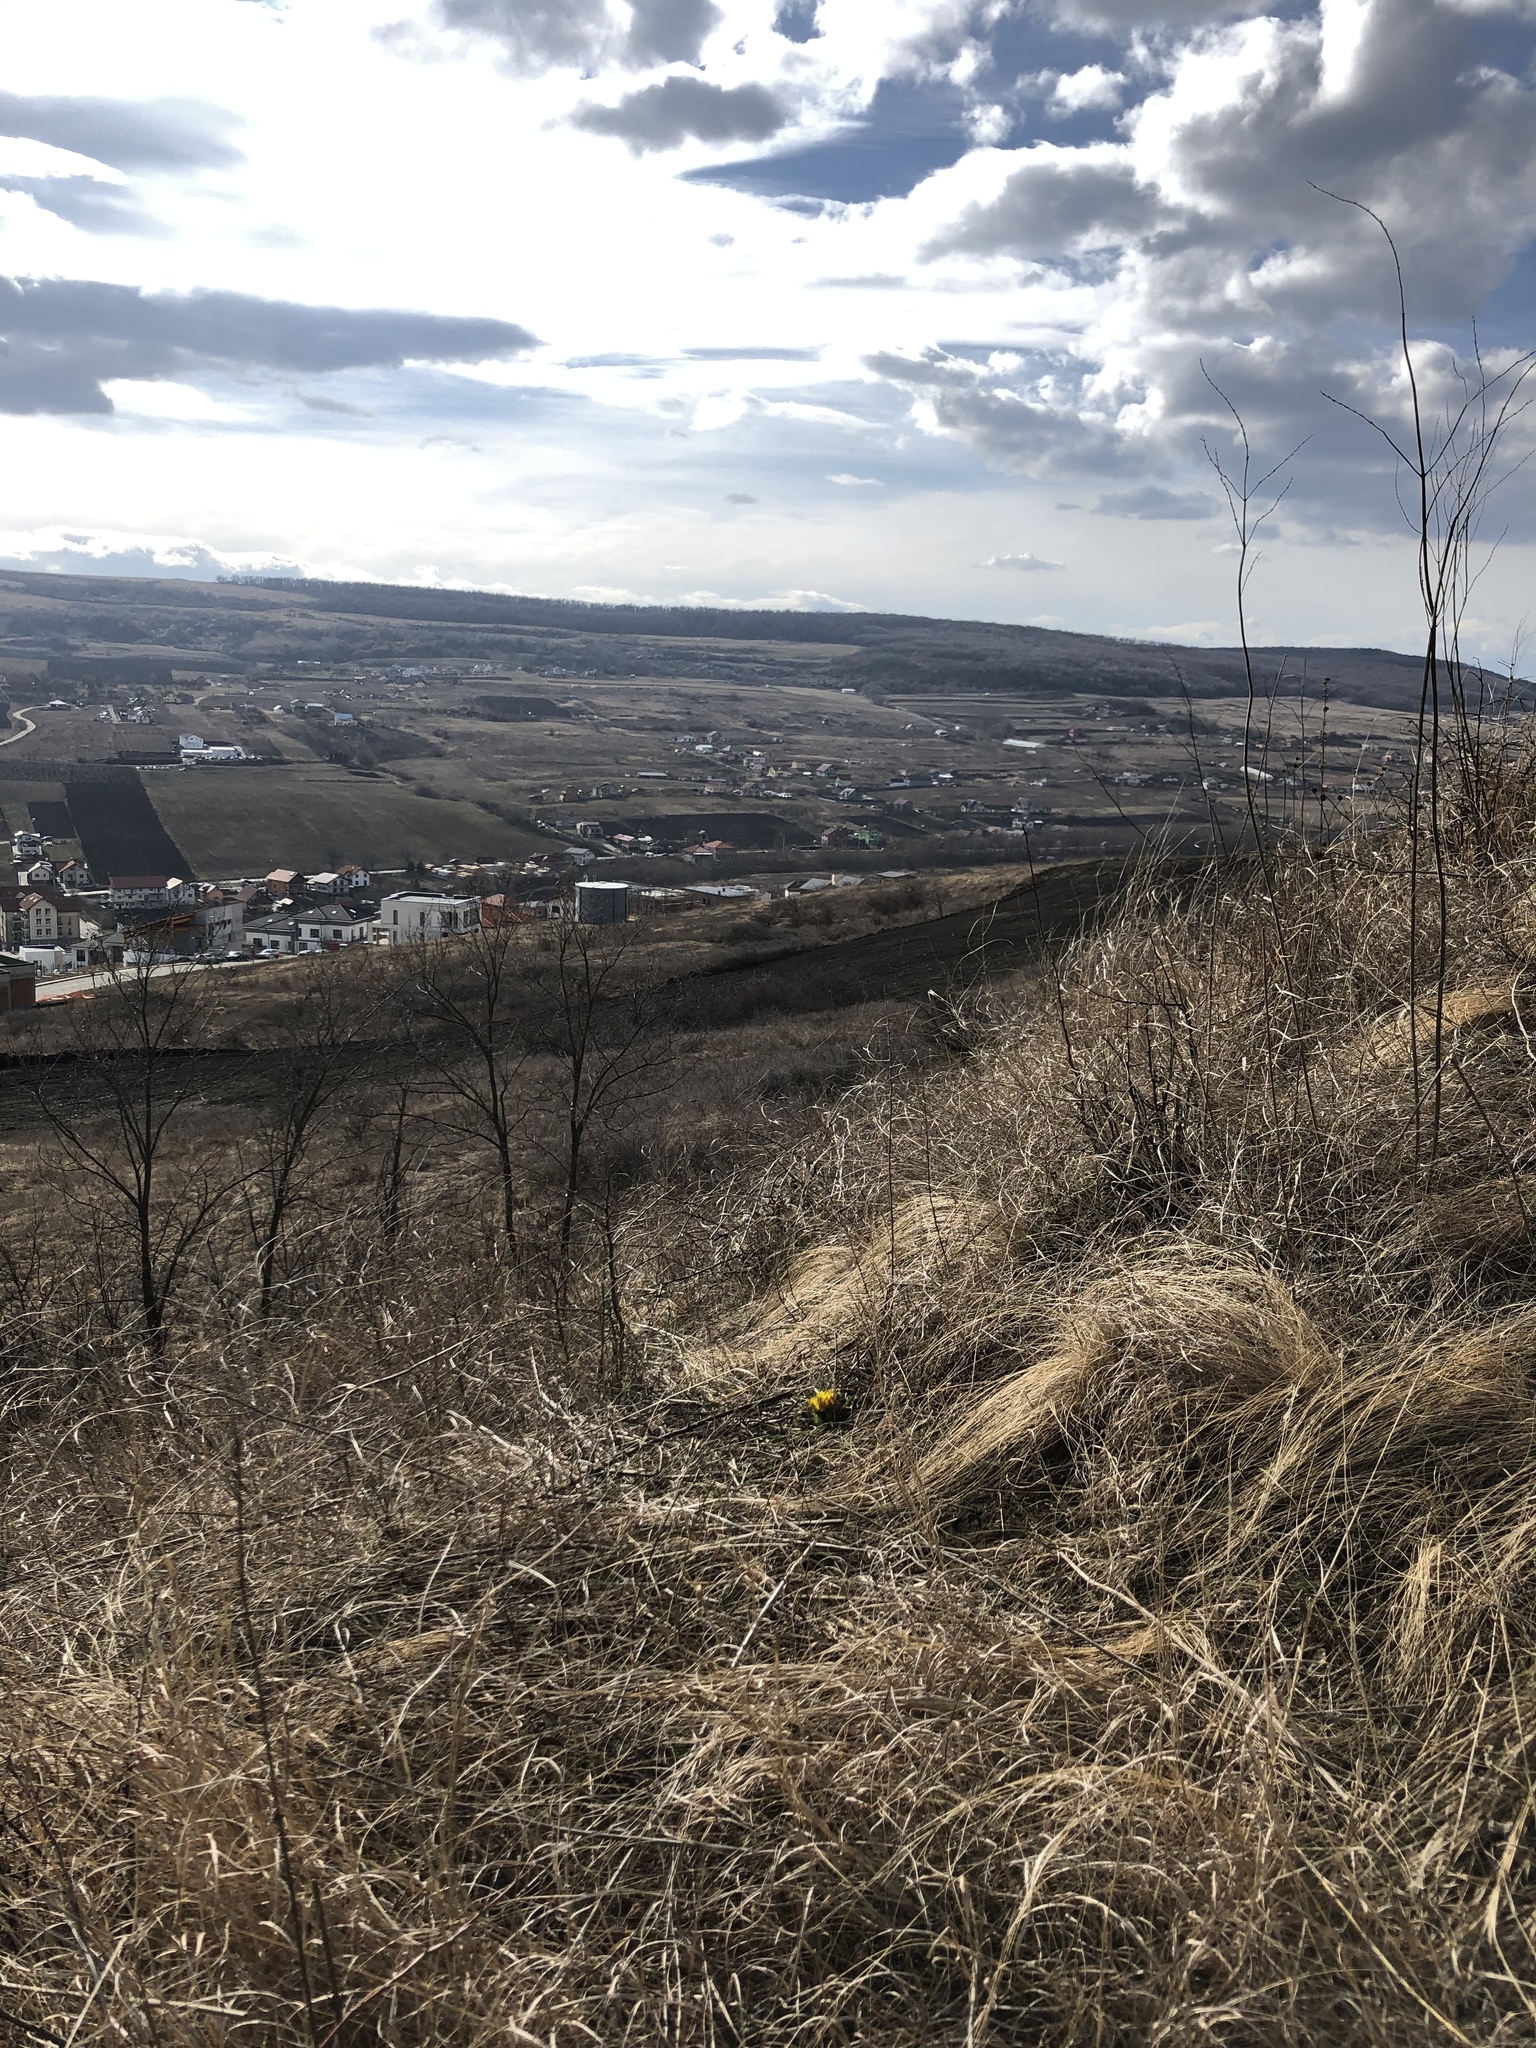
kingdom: Plantae
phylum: Tracheophyta
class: Magnoliopsida
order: Ranunculales
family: Ranunculaceae
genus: Adonis
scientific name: Adonis vernalis
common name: Yellow pheasants-eye
